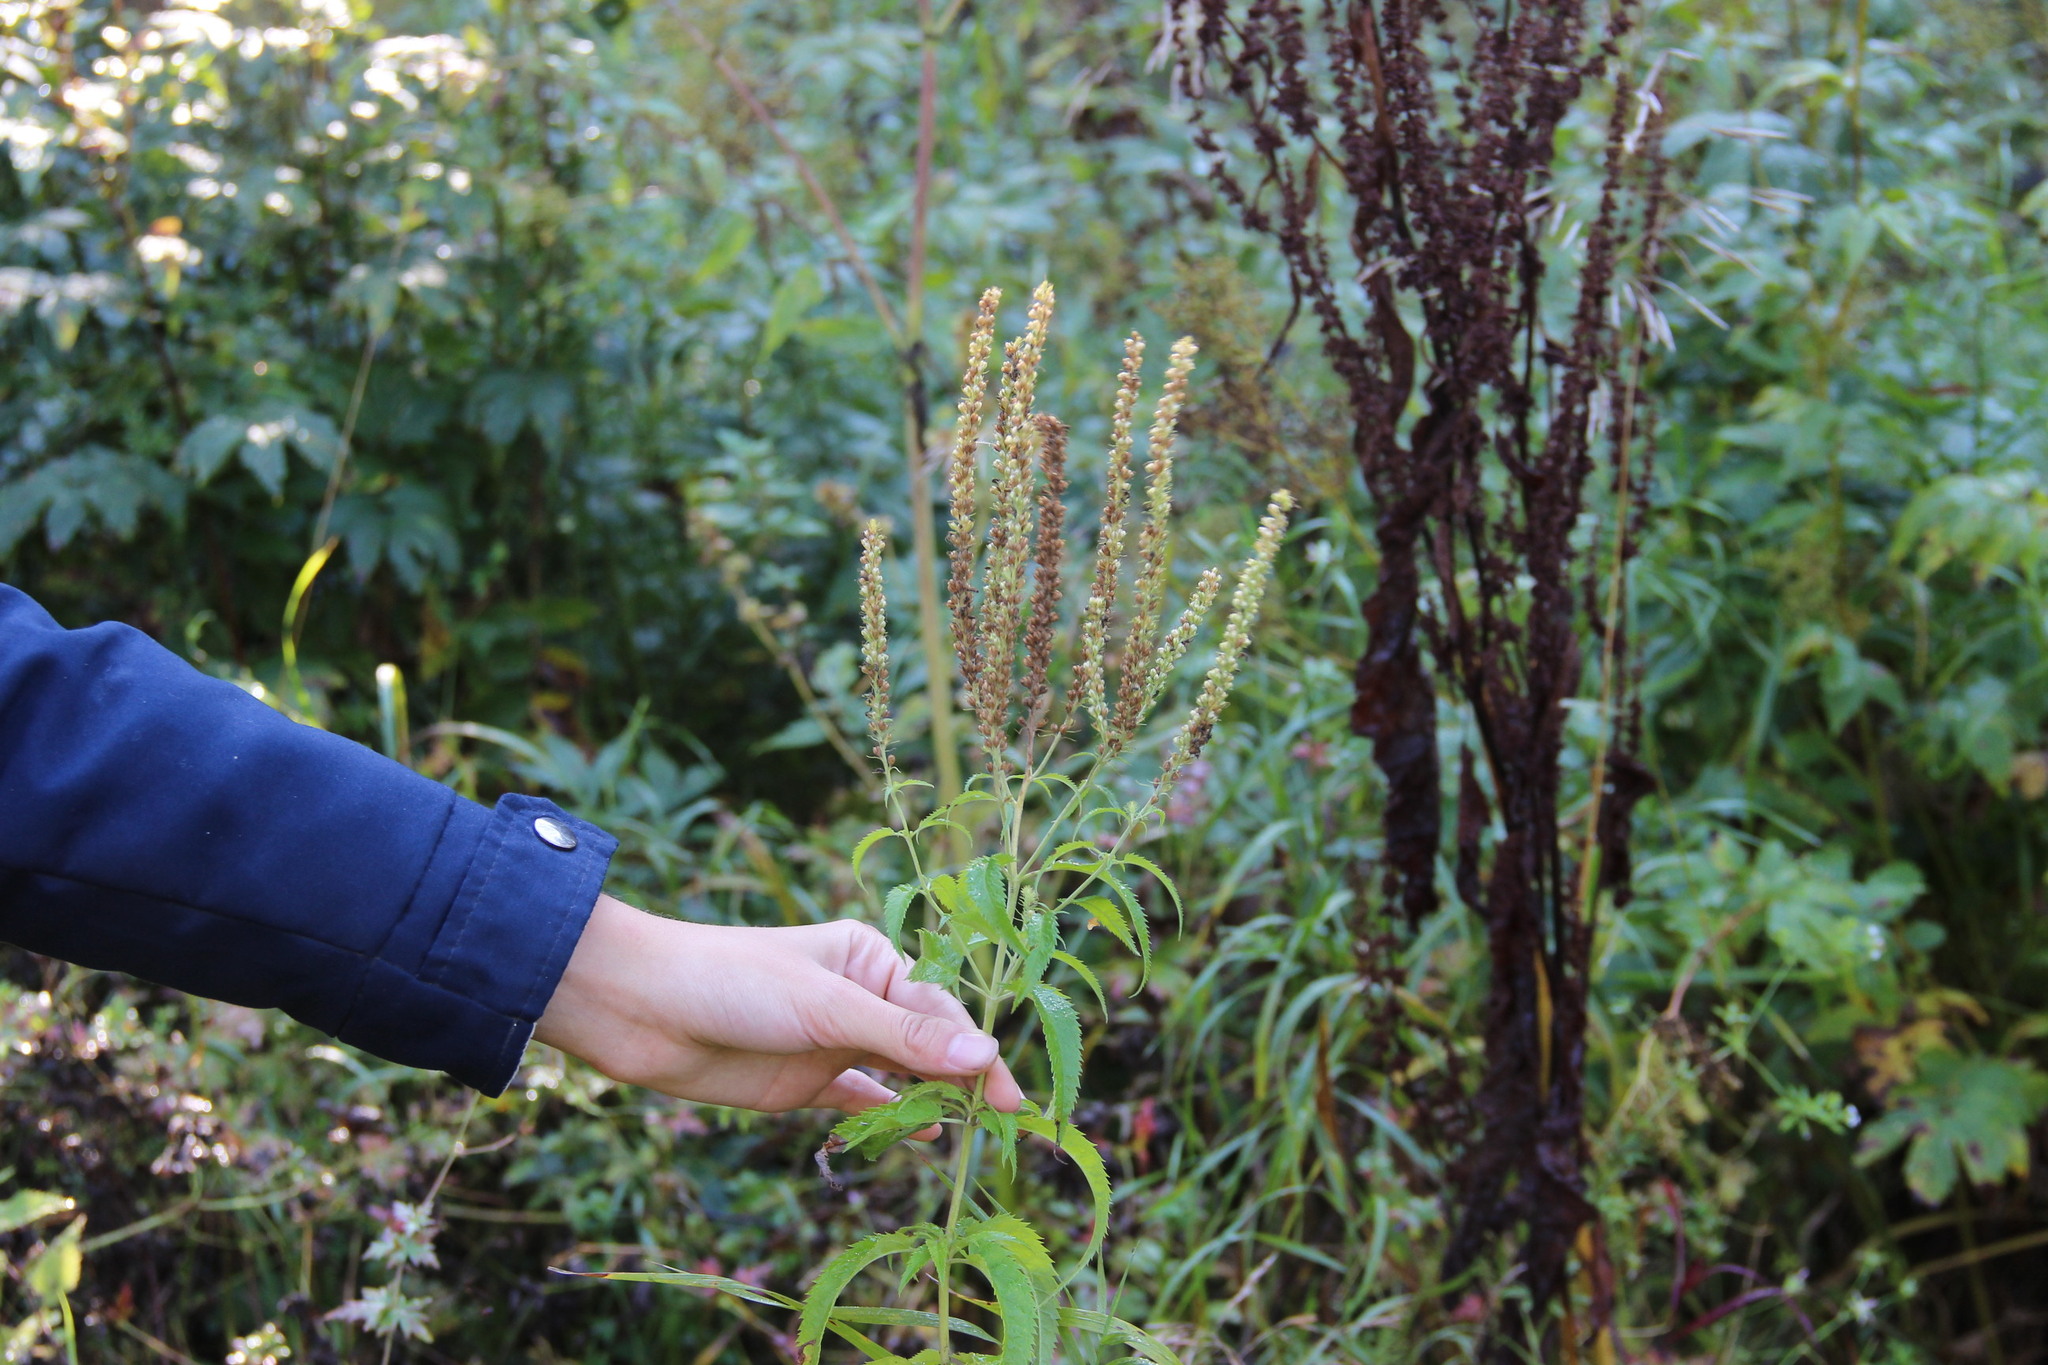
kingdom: Plantae
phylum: Tracheophyta
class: Magnoliopsida
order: Lamiales
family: Plantaginaceae
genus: Veronica
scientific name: Veronica longifolia
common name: Garden speedwell
